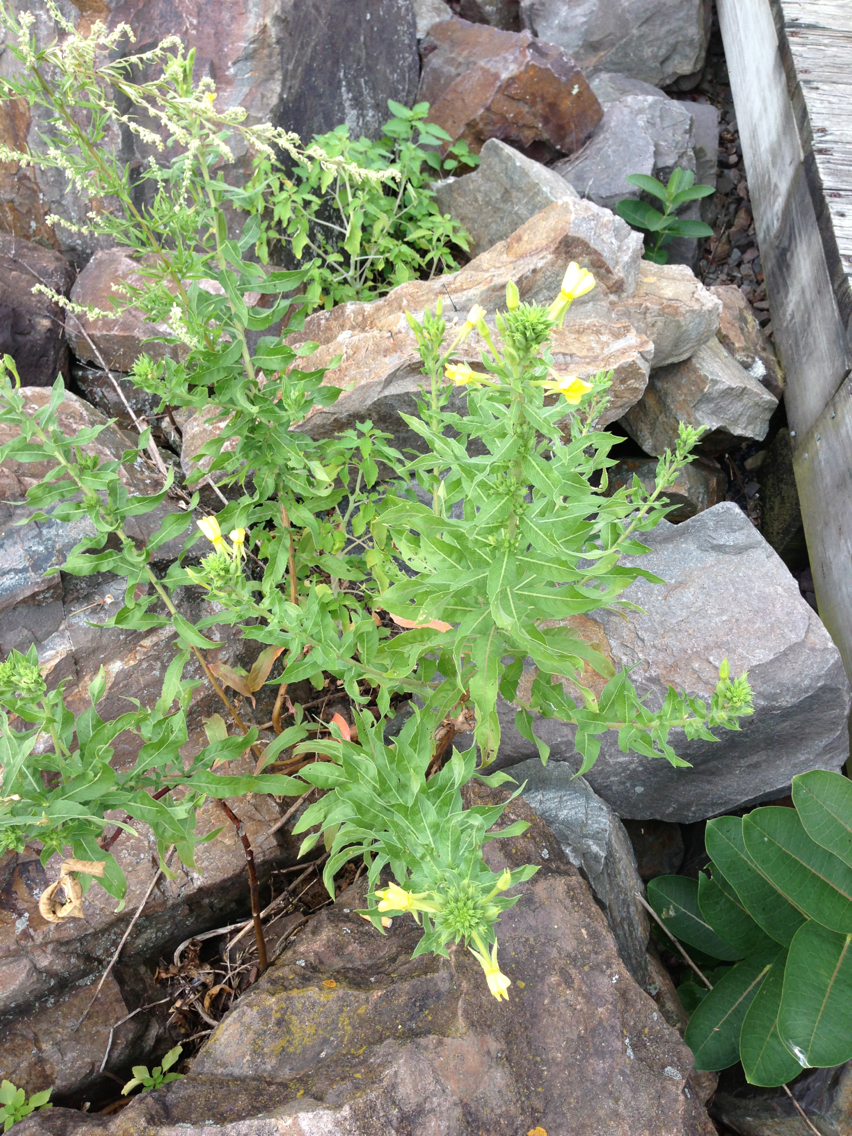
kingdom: Plantae
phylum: Tracheophyta
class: Magnoliopsida
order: Myrtales
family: Onagraceae
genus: Oenothera
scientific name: Oenothera biennis
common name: Common evening-primrose
